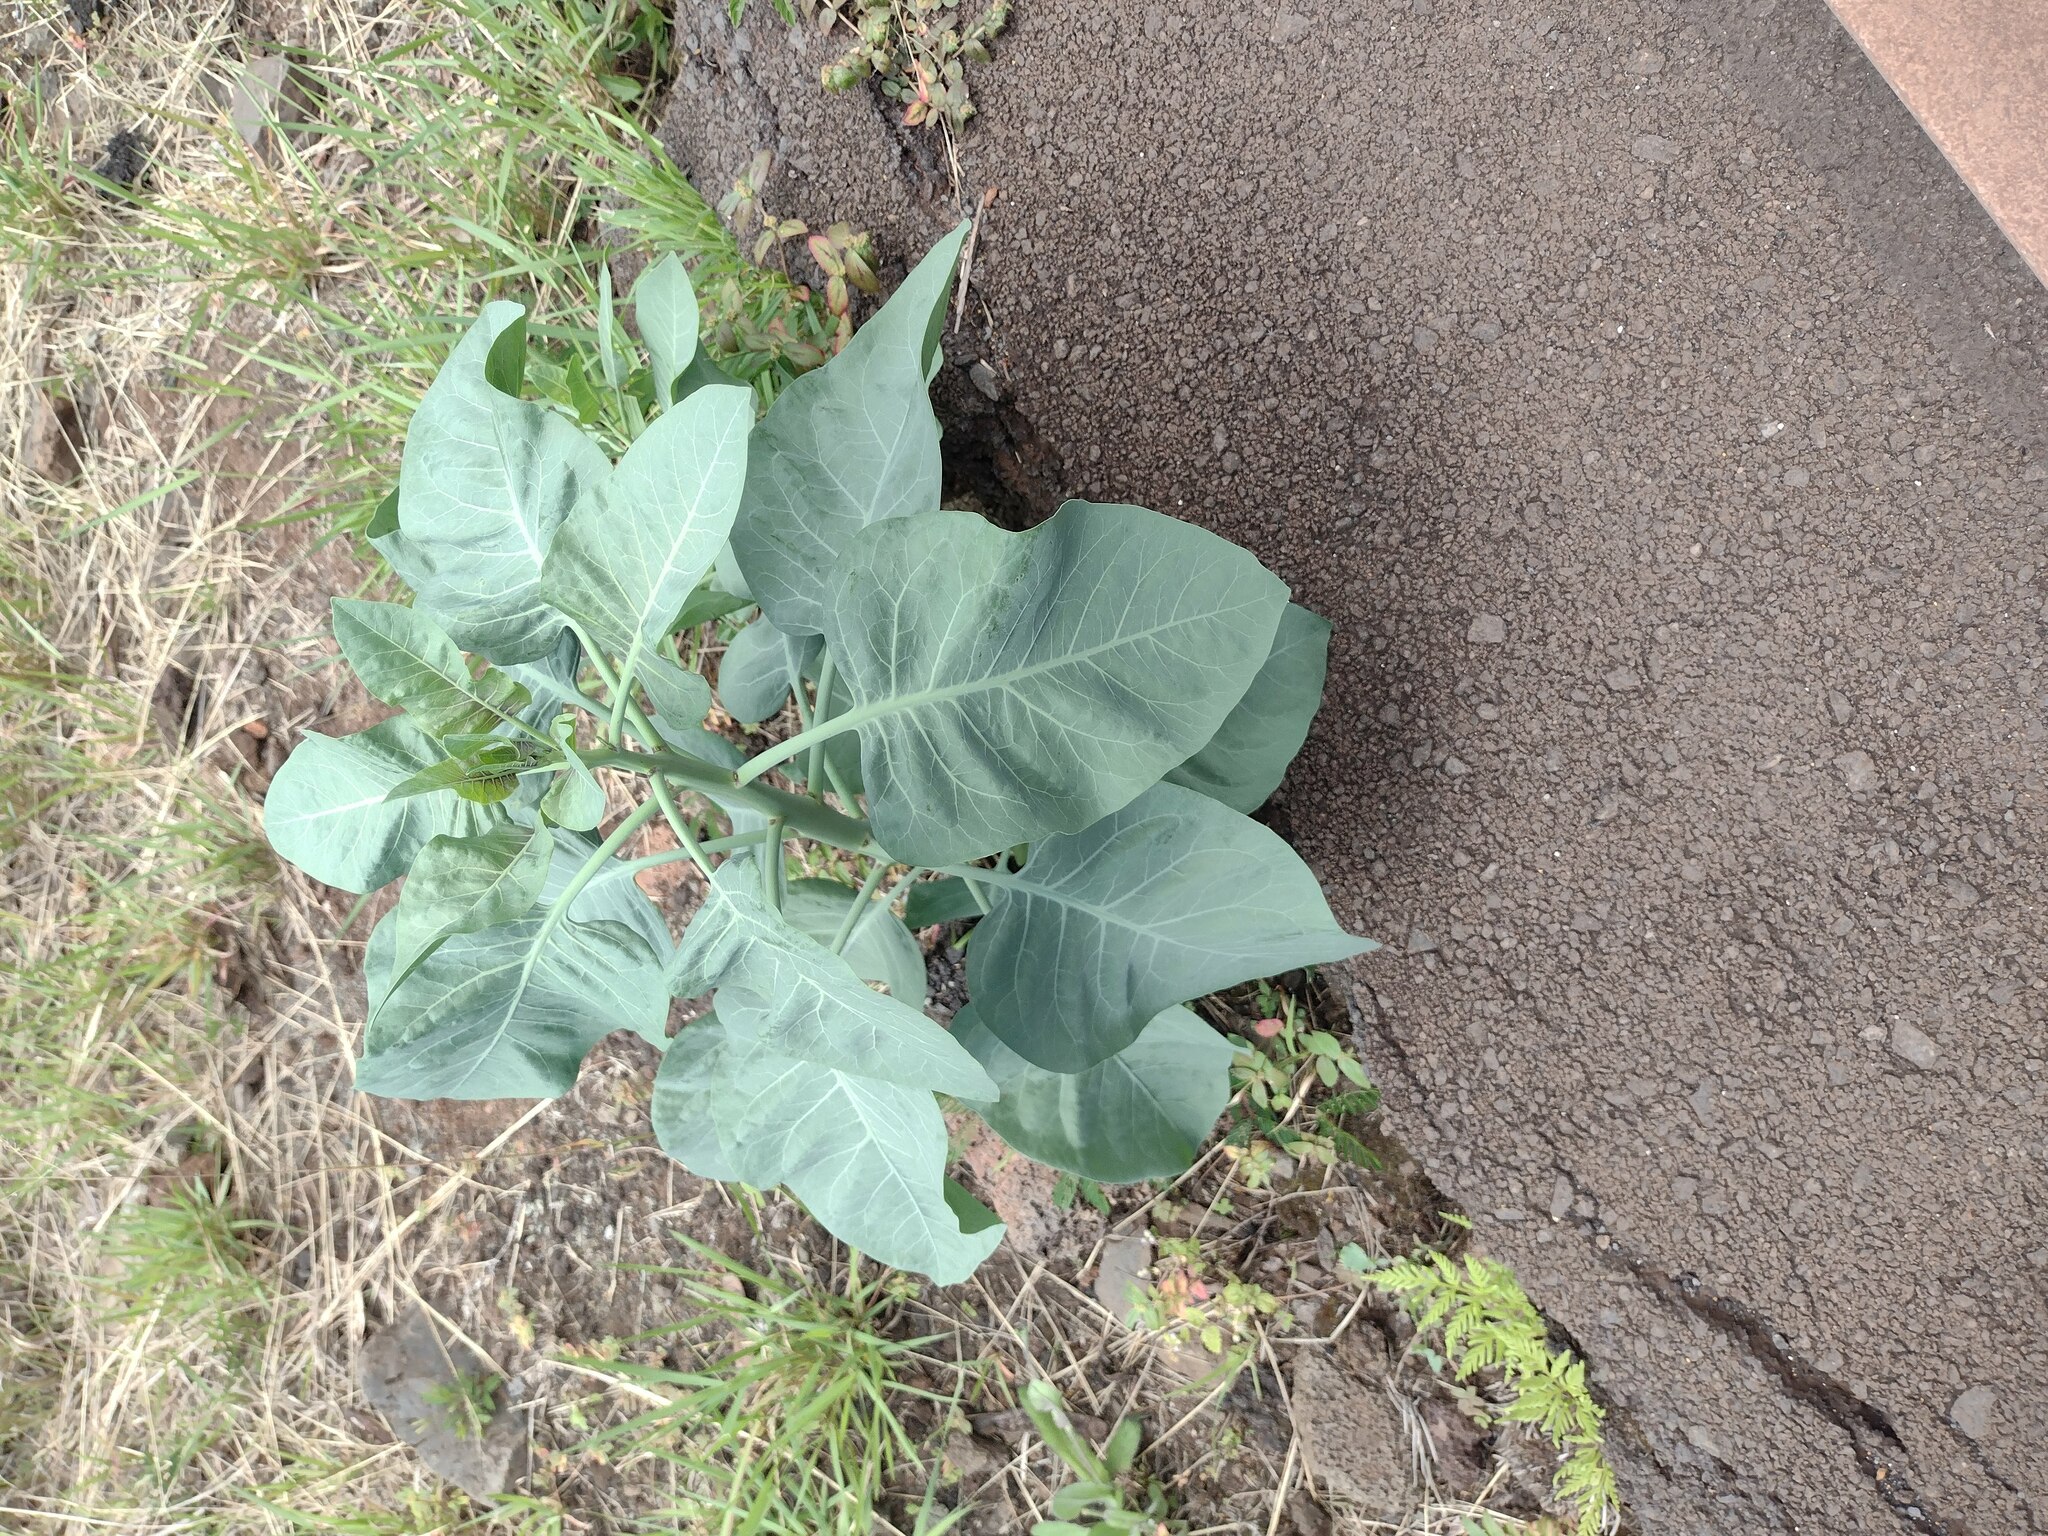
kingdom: Plantae
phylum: Tracheophyta
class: Magnoliopsida
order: Solanales
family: Solanaceae
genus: Nicotiana
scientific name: Nicotiana glauca
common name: Tree tobacco
